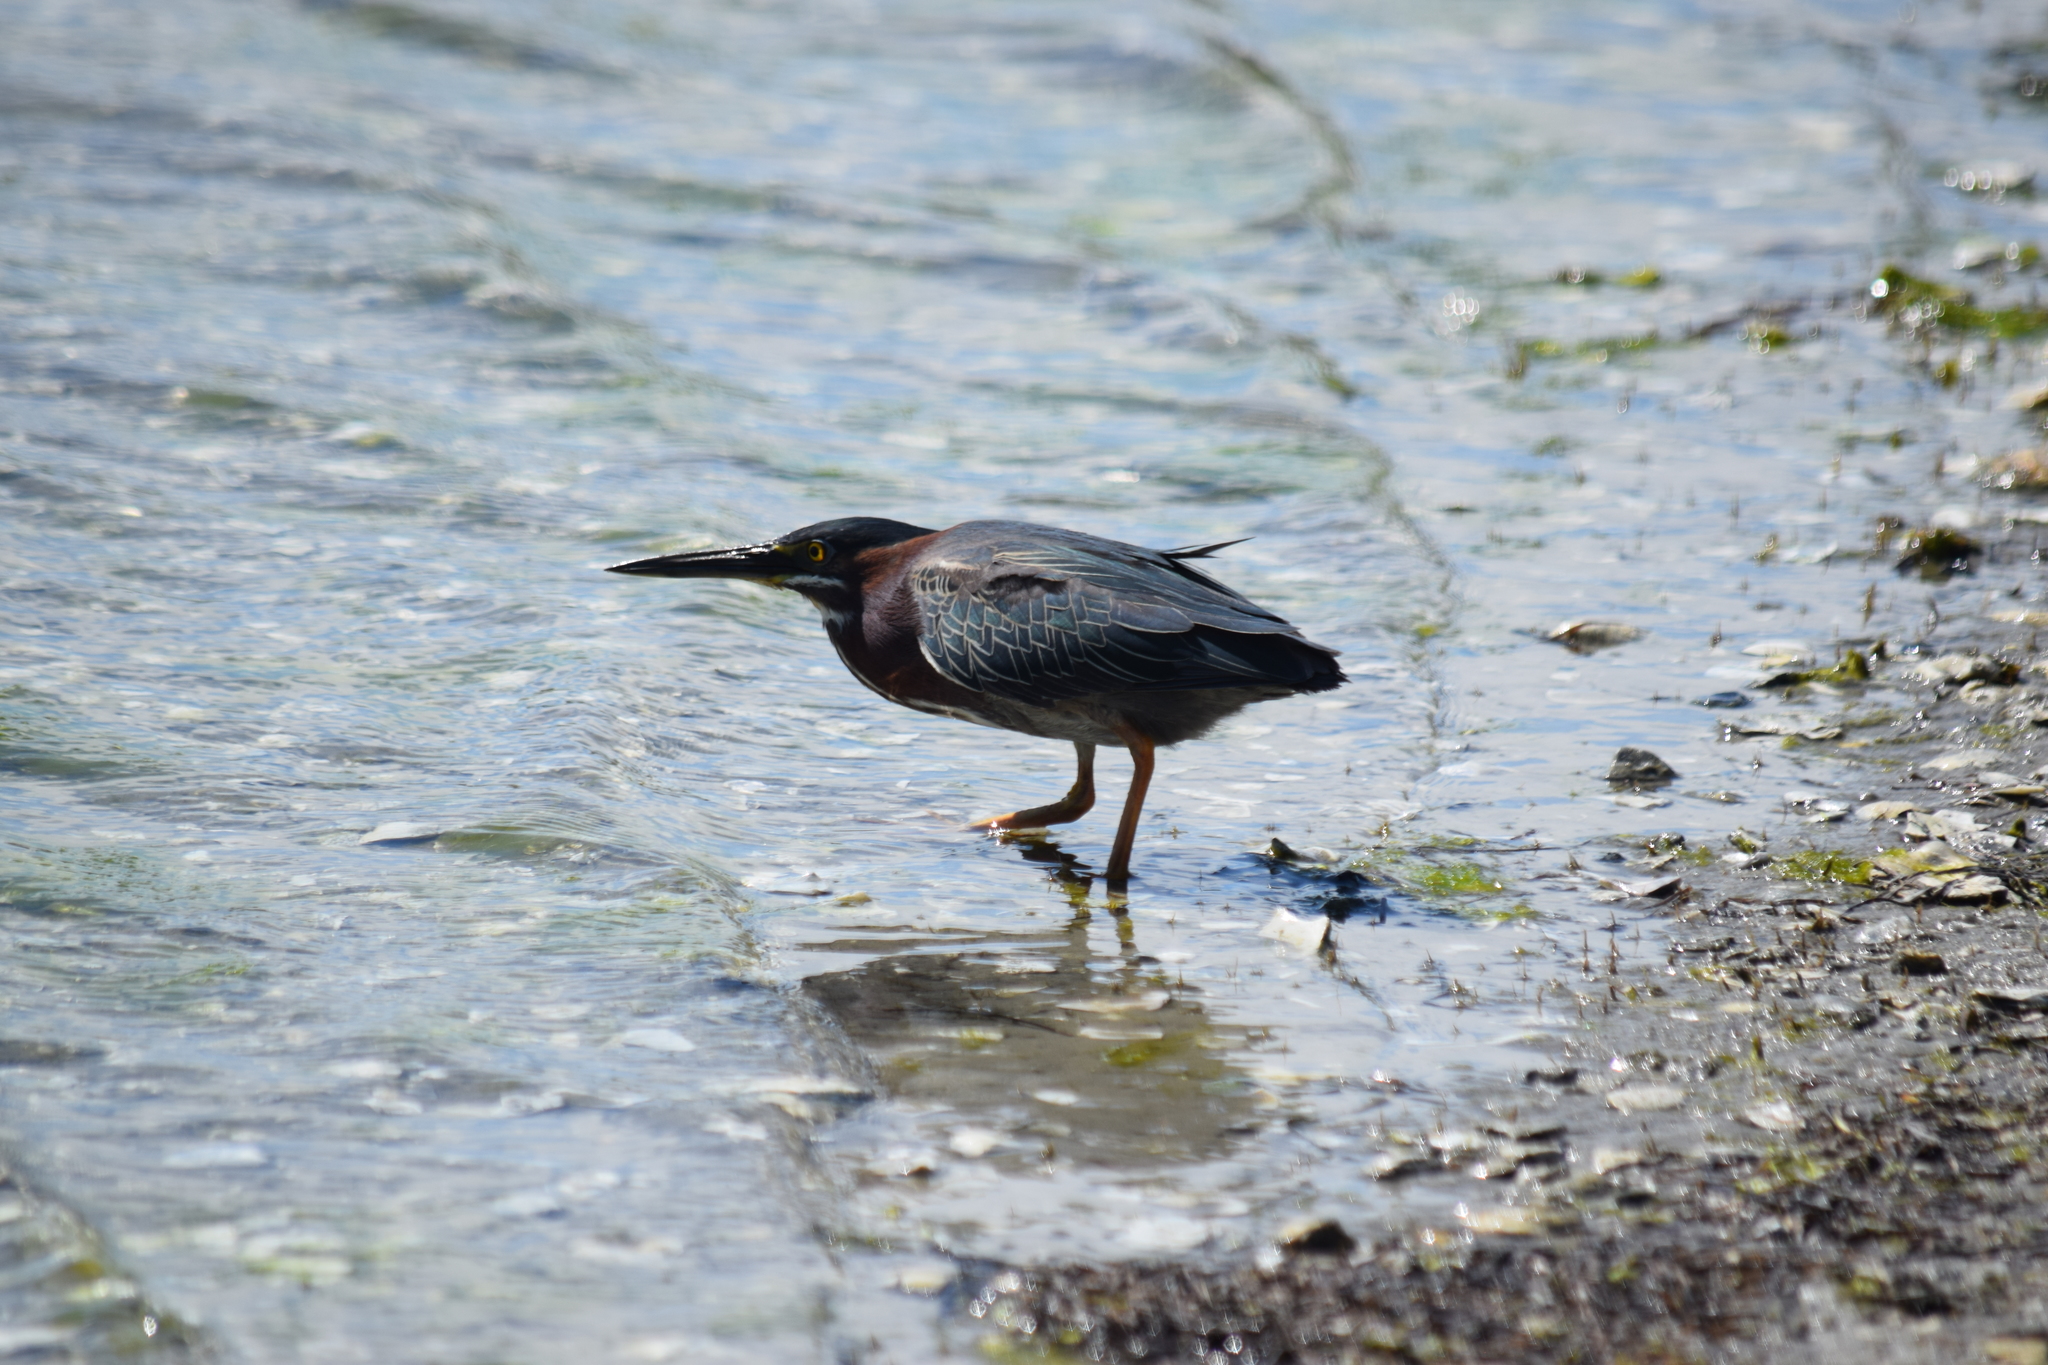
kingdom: Animalia
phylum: Chordata
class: Aves
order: Pelecaniformes
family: Ardeidae
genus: Butorides
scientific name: Butorides virescens
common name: Green heron
